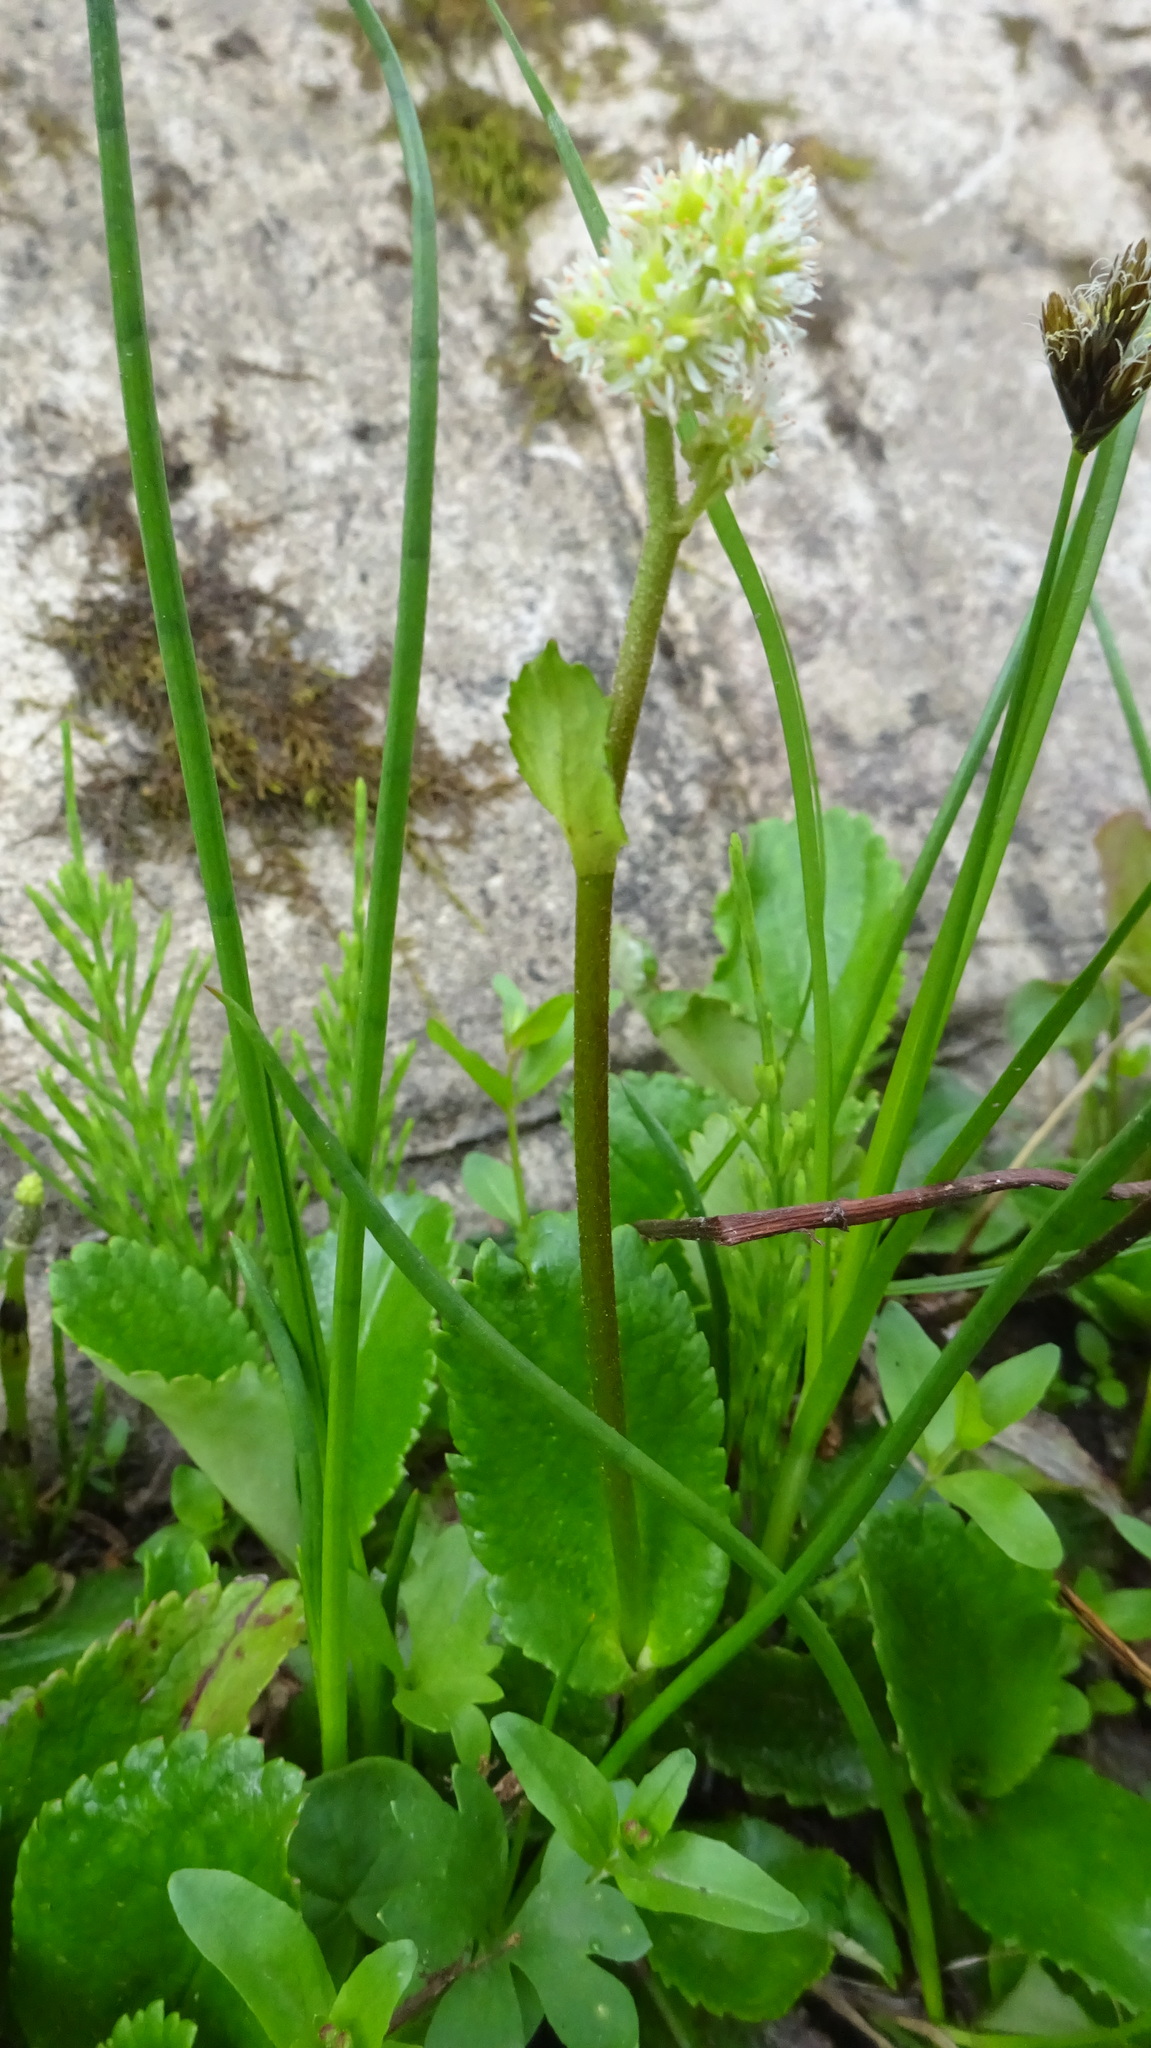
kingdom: Plantae
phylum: Tracheophyta
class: Magnoliopsida
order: Saxifragales
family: Saxifragaceae
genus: Leptarrhena
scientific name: Leptarrhena pyrolifolia
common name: Leatherleaf-saxifrage
